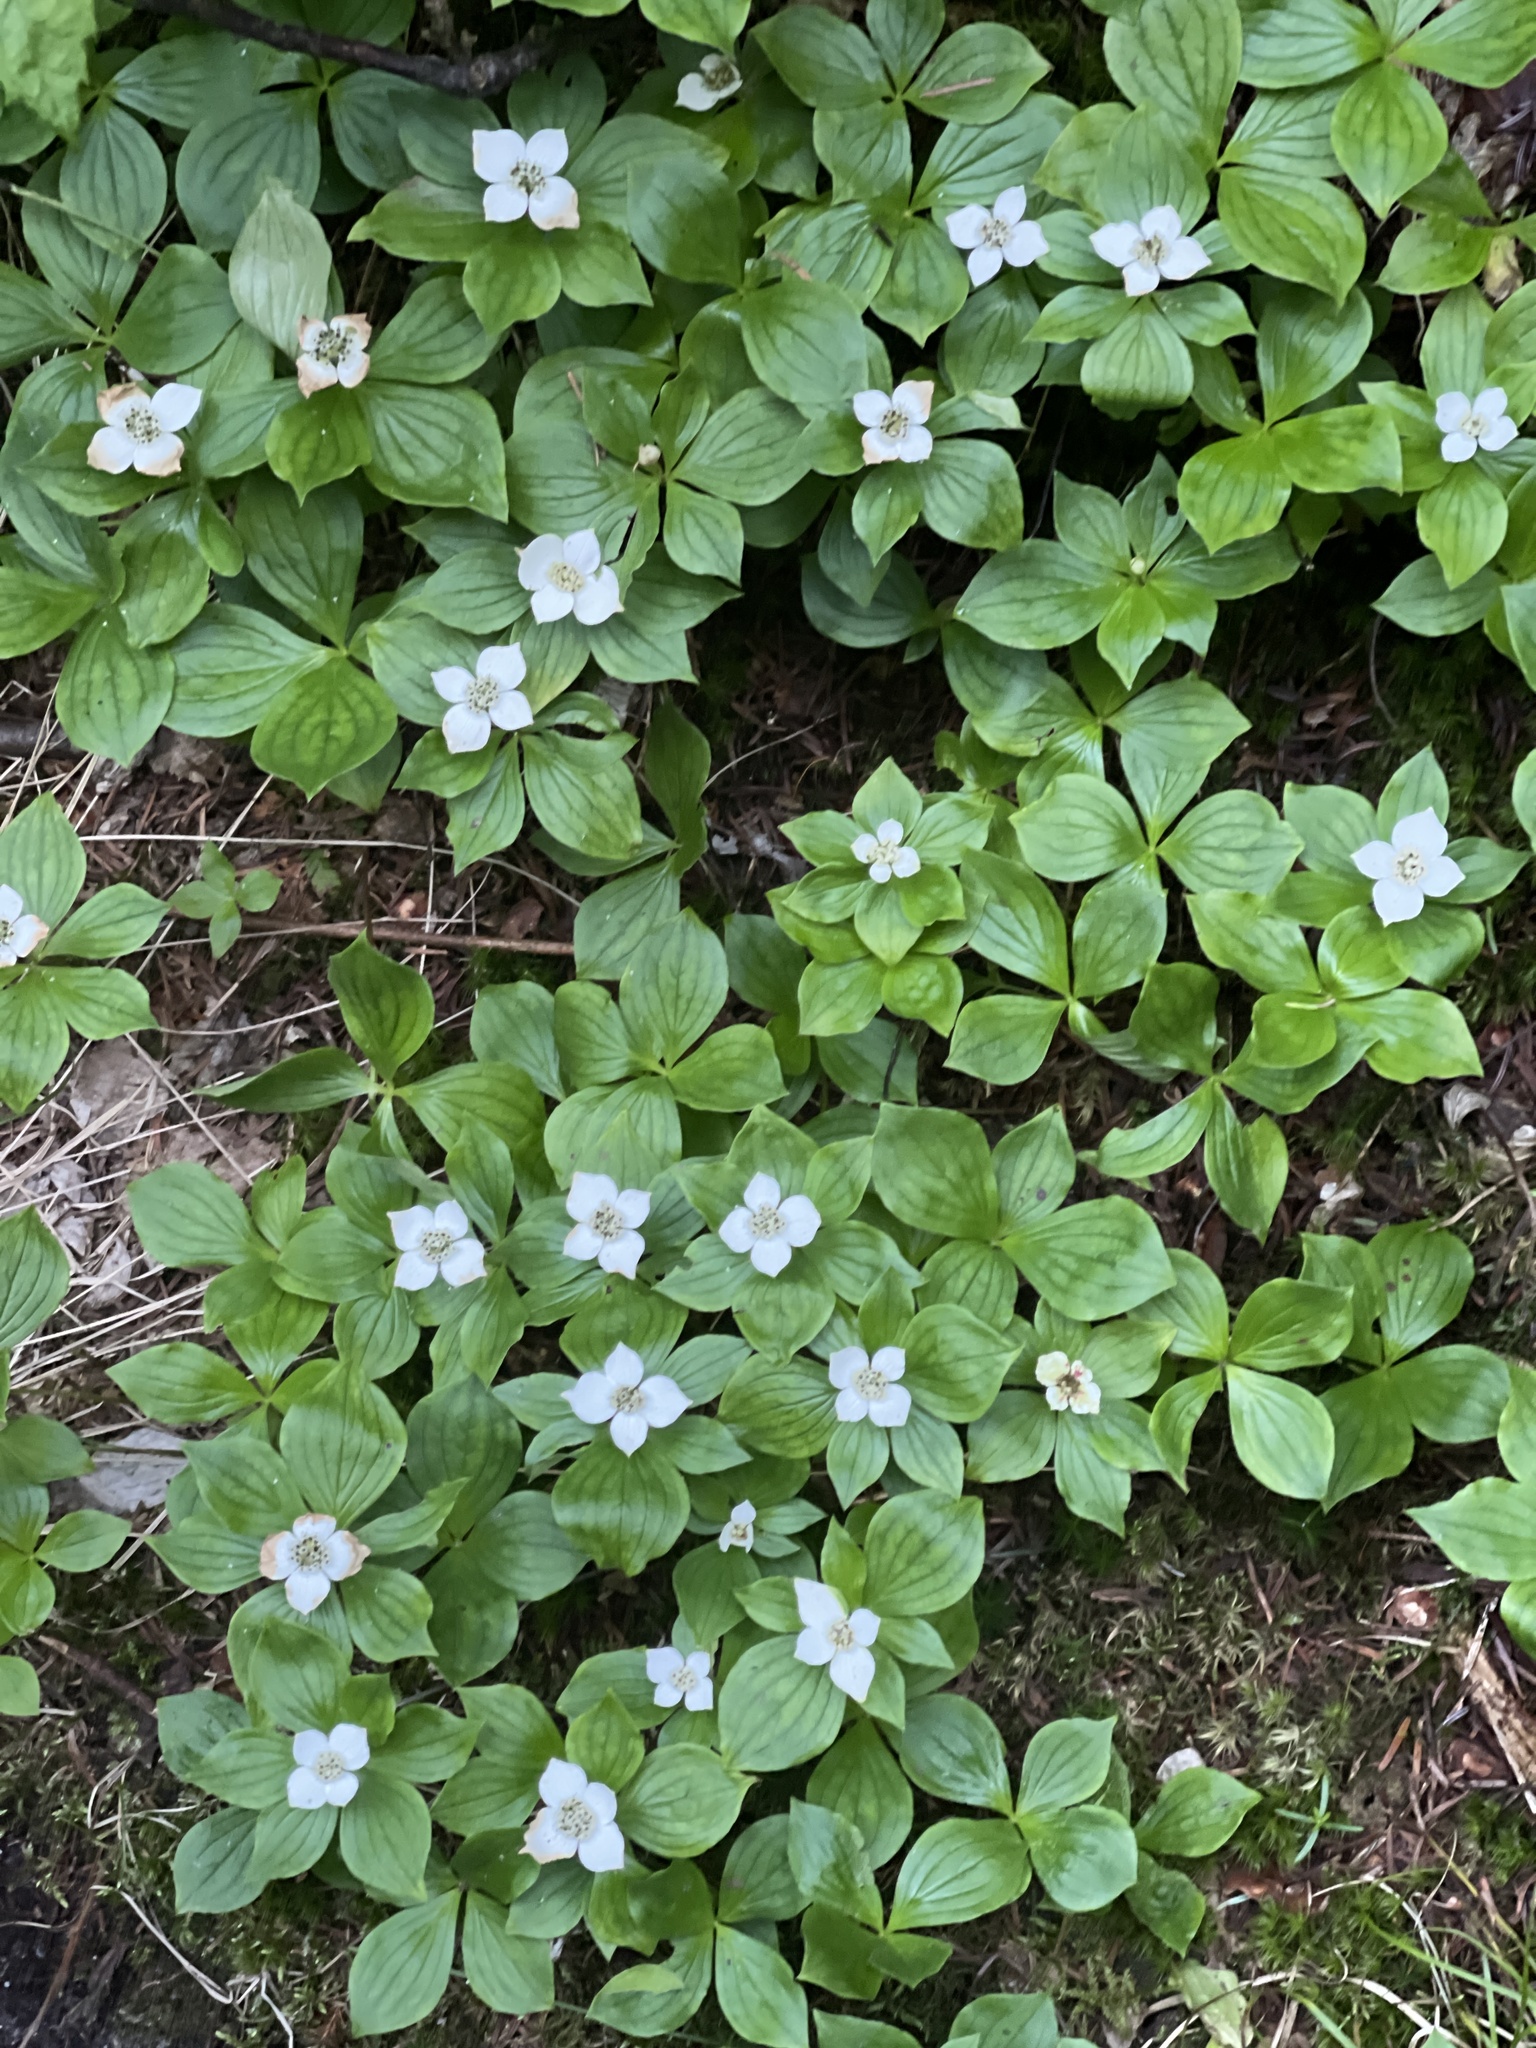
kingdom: Plantae
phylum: Tracheophyta
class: Magnoliopsida
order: Cornales
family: Cornaceae
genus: Cornus
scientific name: Cornus canadensis
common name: Creeping dogwood
